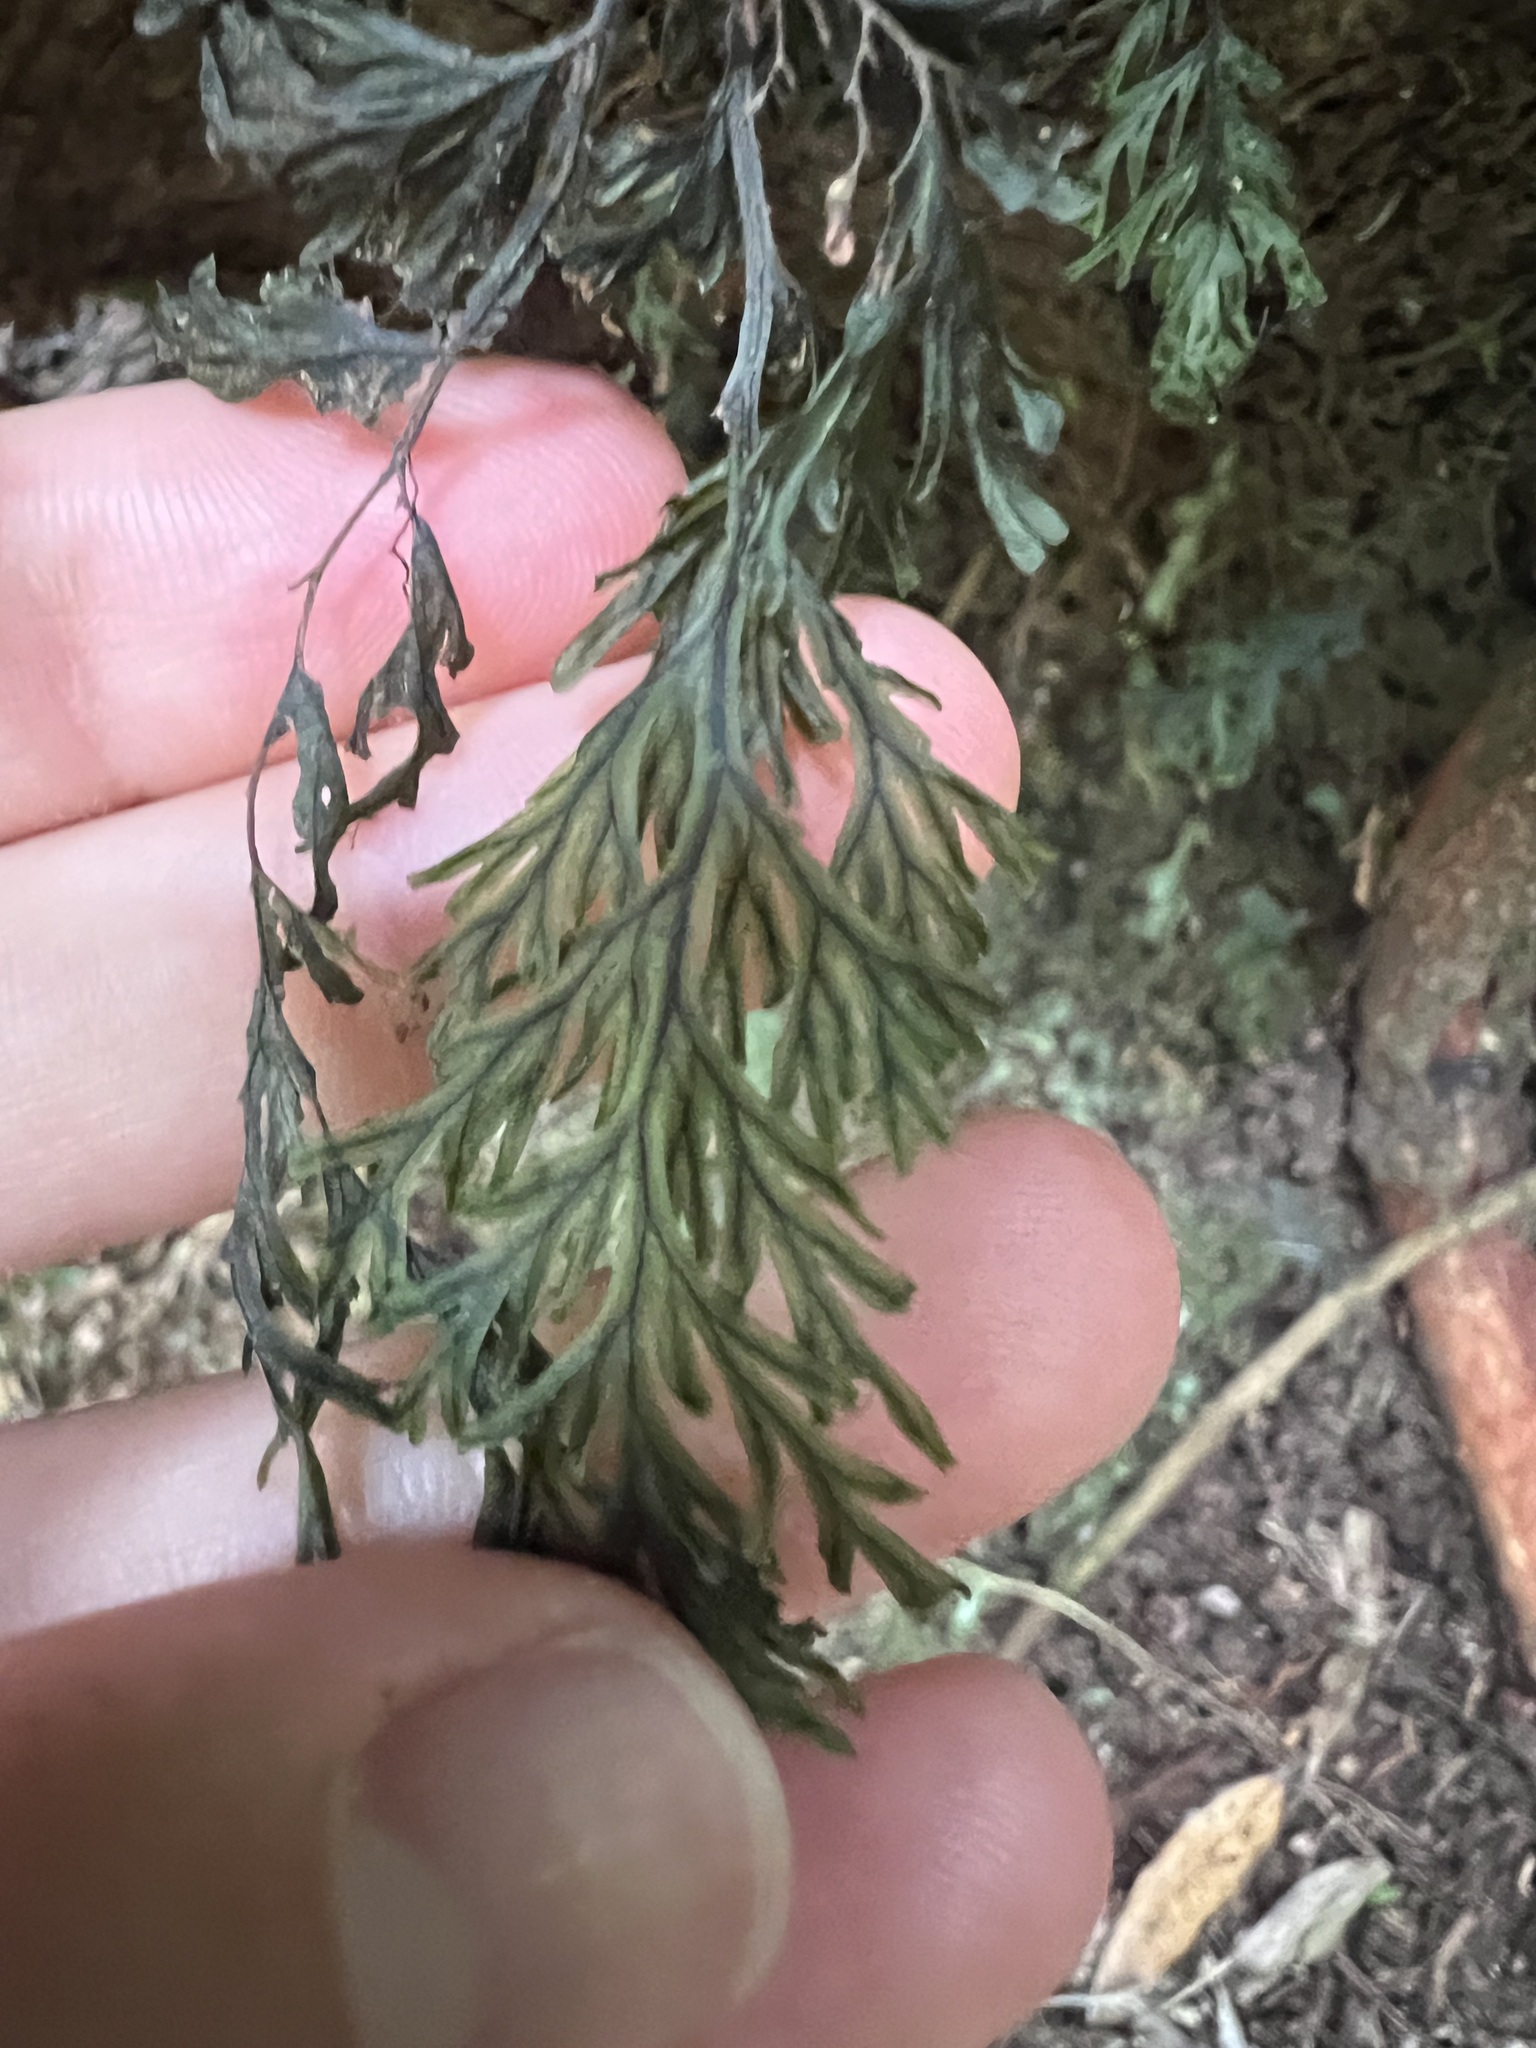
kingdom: Plantae
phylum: Tracheophyta
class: Polypodiopsida
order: Hymenophyllales
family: Hymenophyllaceae
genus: Hymenophyllum
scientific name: Hymenophyllum scabrum
